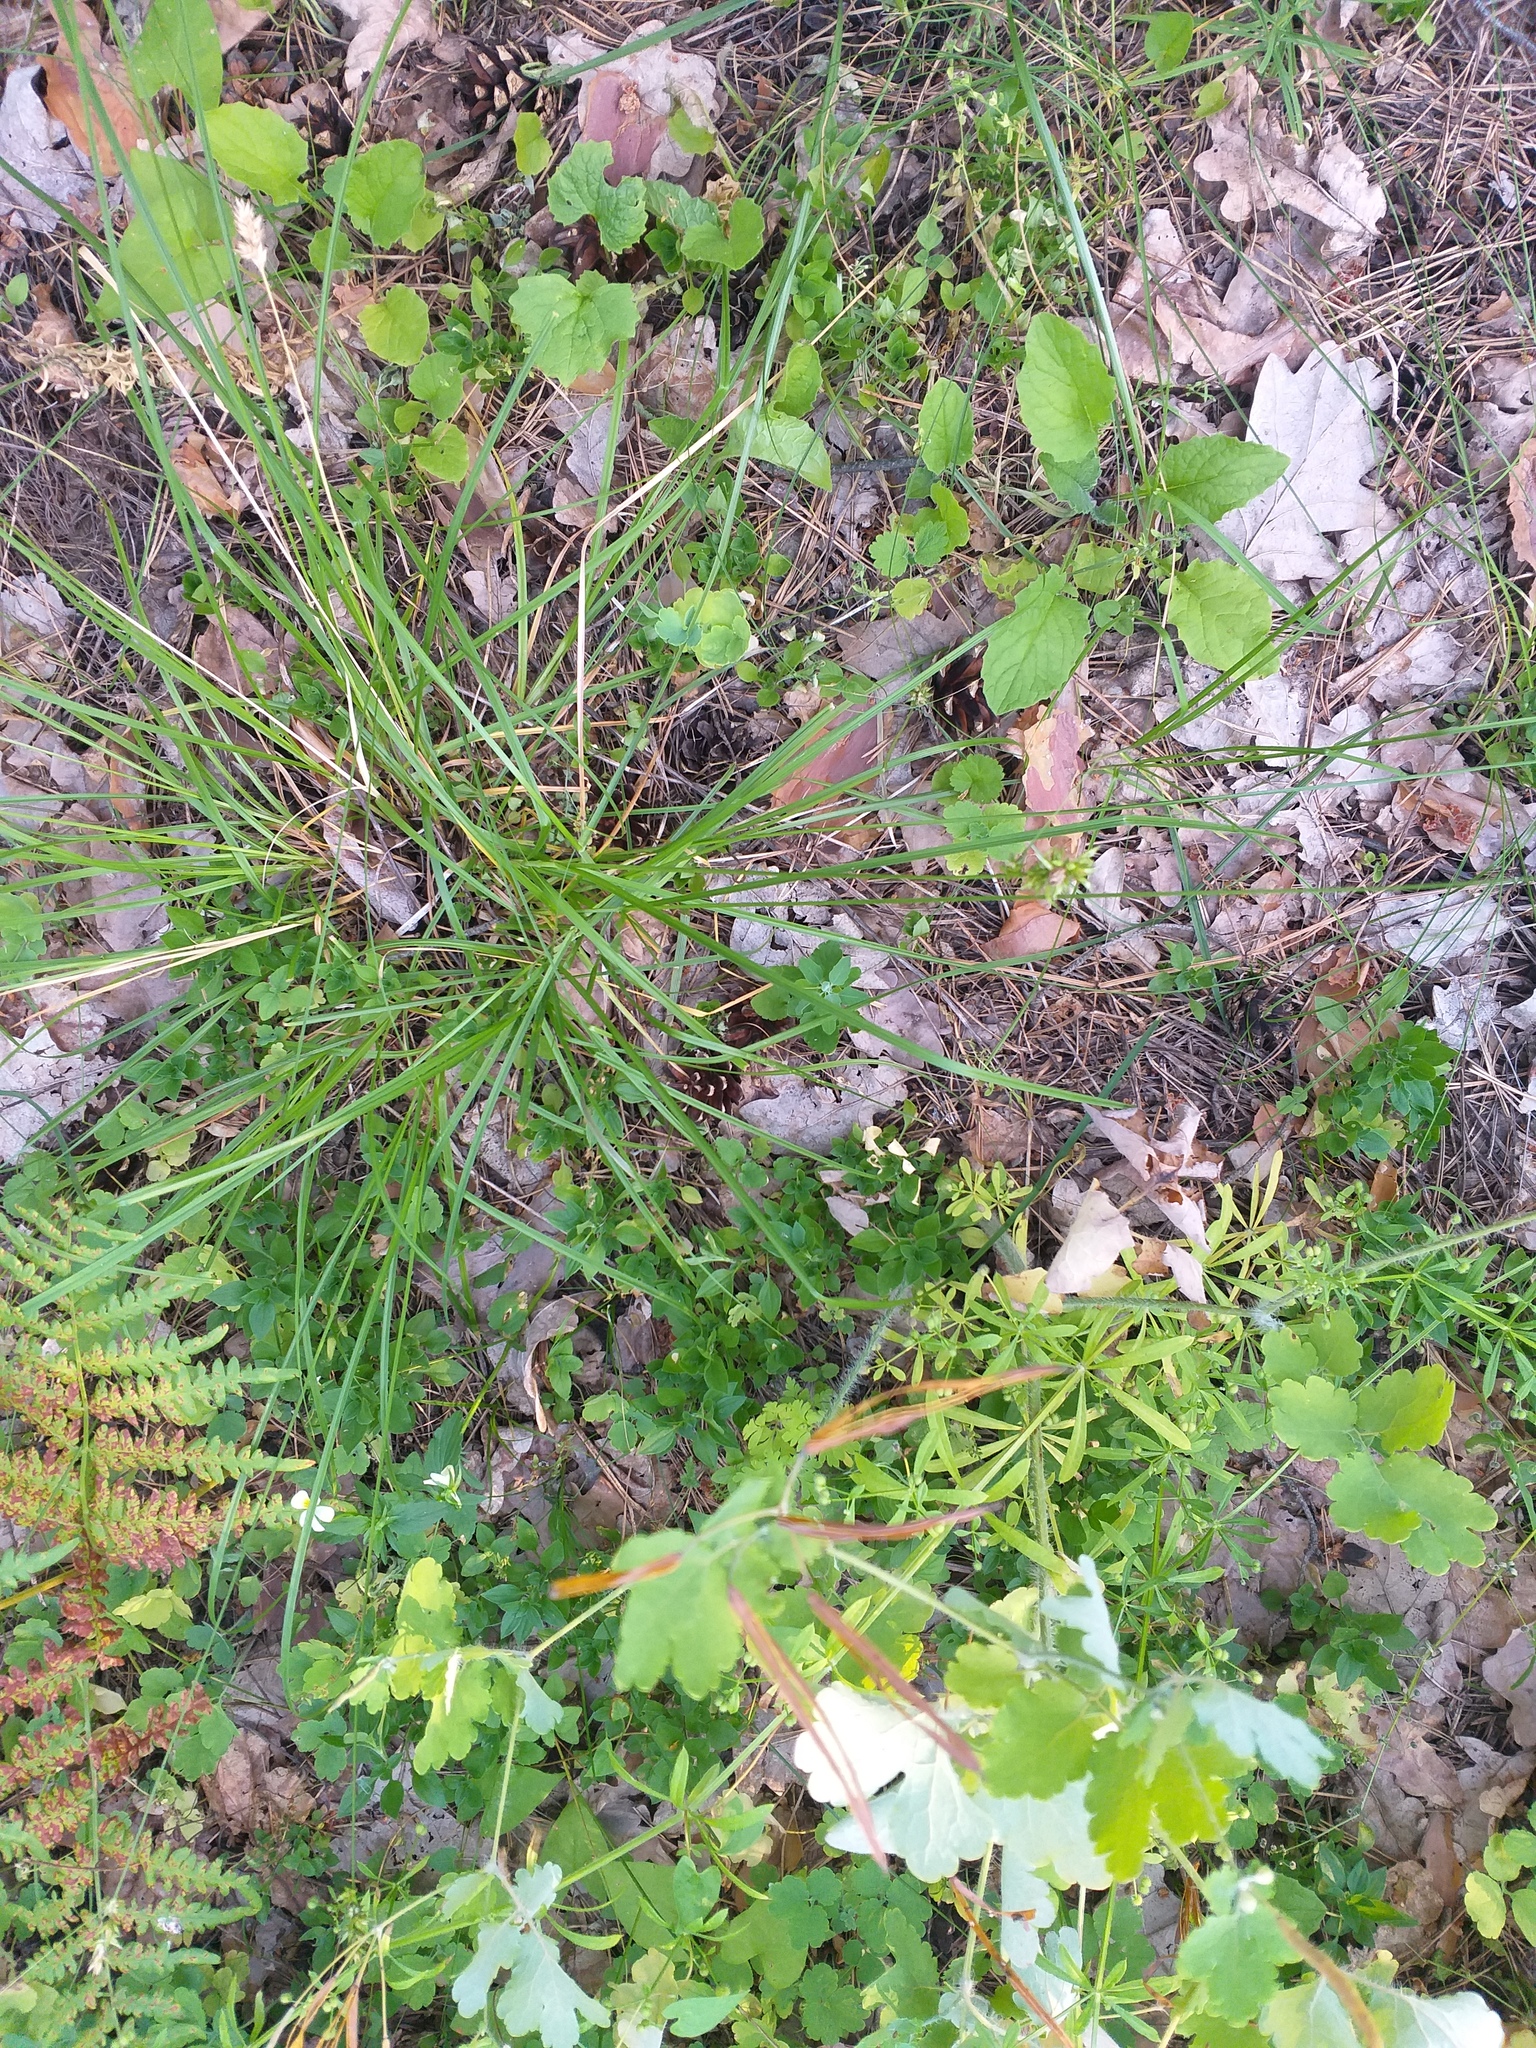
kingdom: Plantae
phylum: Tracheophyta
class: Liliopsida
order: Poales
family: Cyperaceae
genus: Carex
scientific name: Carex spicata
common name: Spiked sedge
